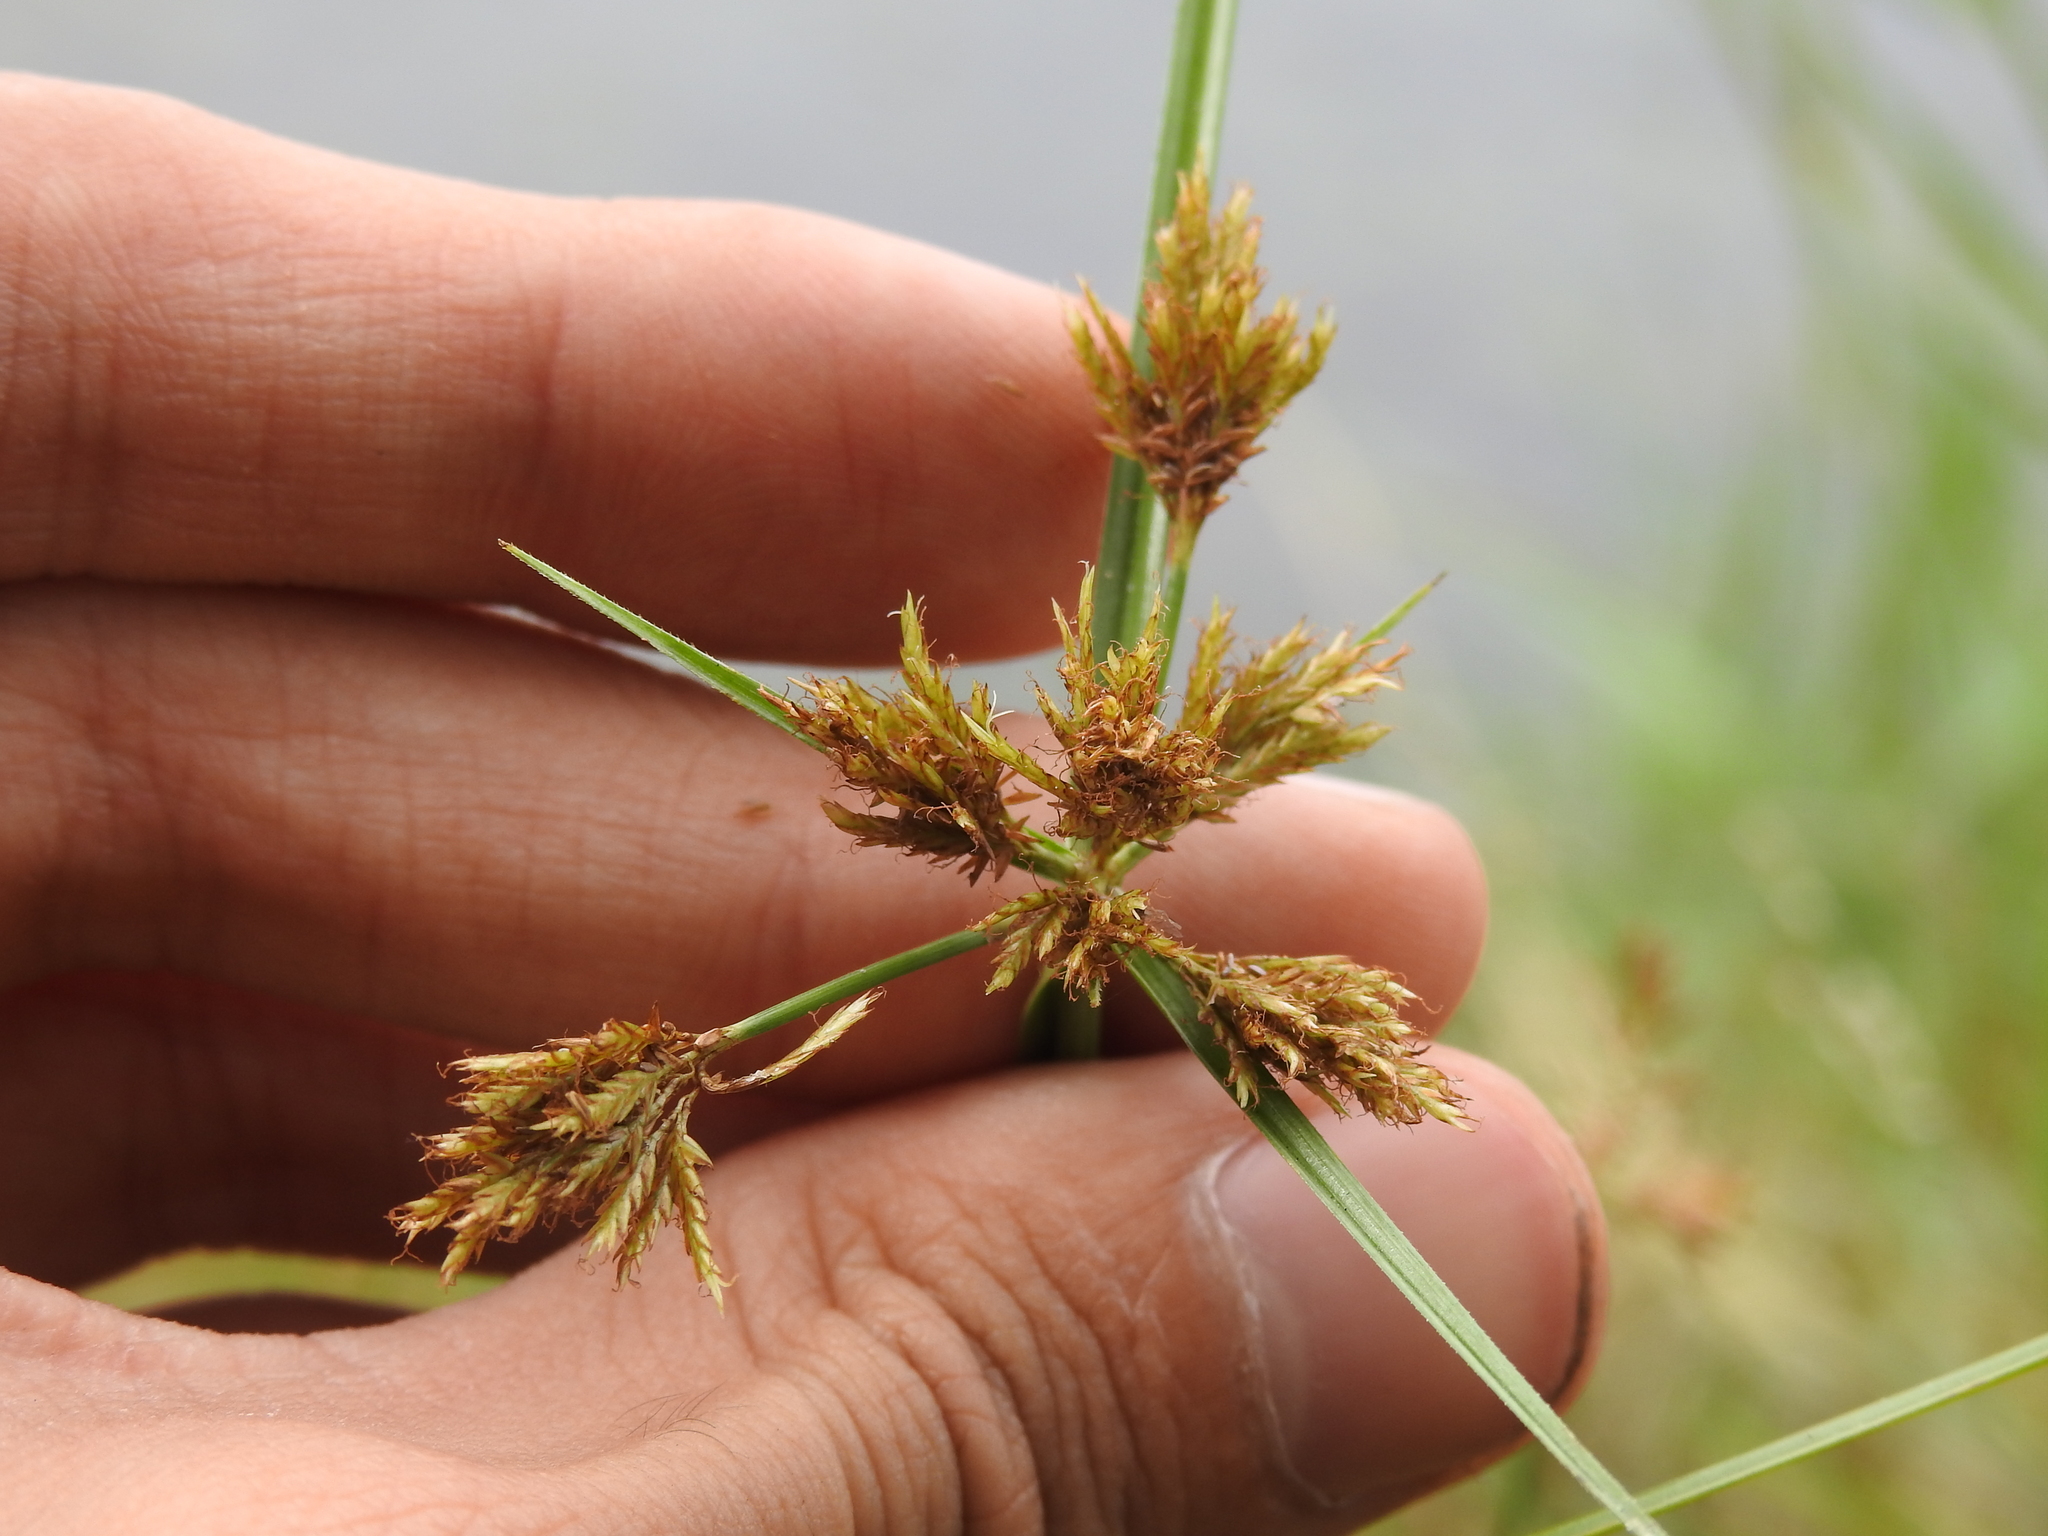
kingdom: Plantae
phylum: Tracheophyta
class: Liliopsida
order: Poales
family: Cyperaceae
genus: Cyperus
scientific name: Cyperus polystachyos
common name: Bunchy flat sedge
